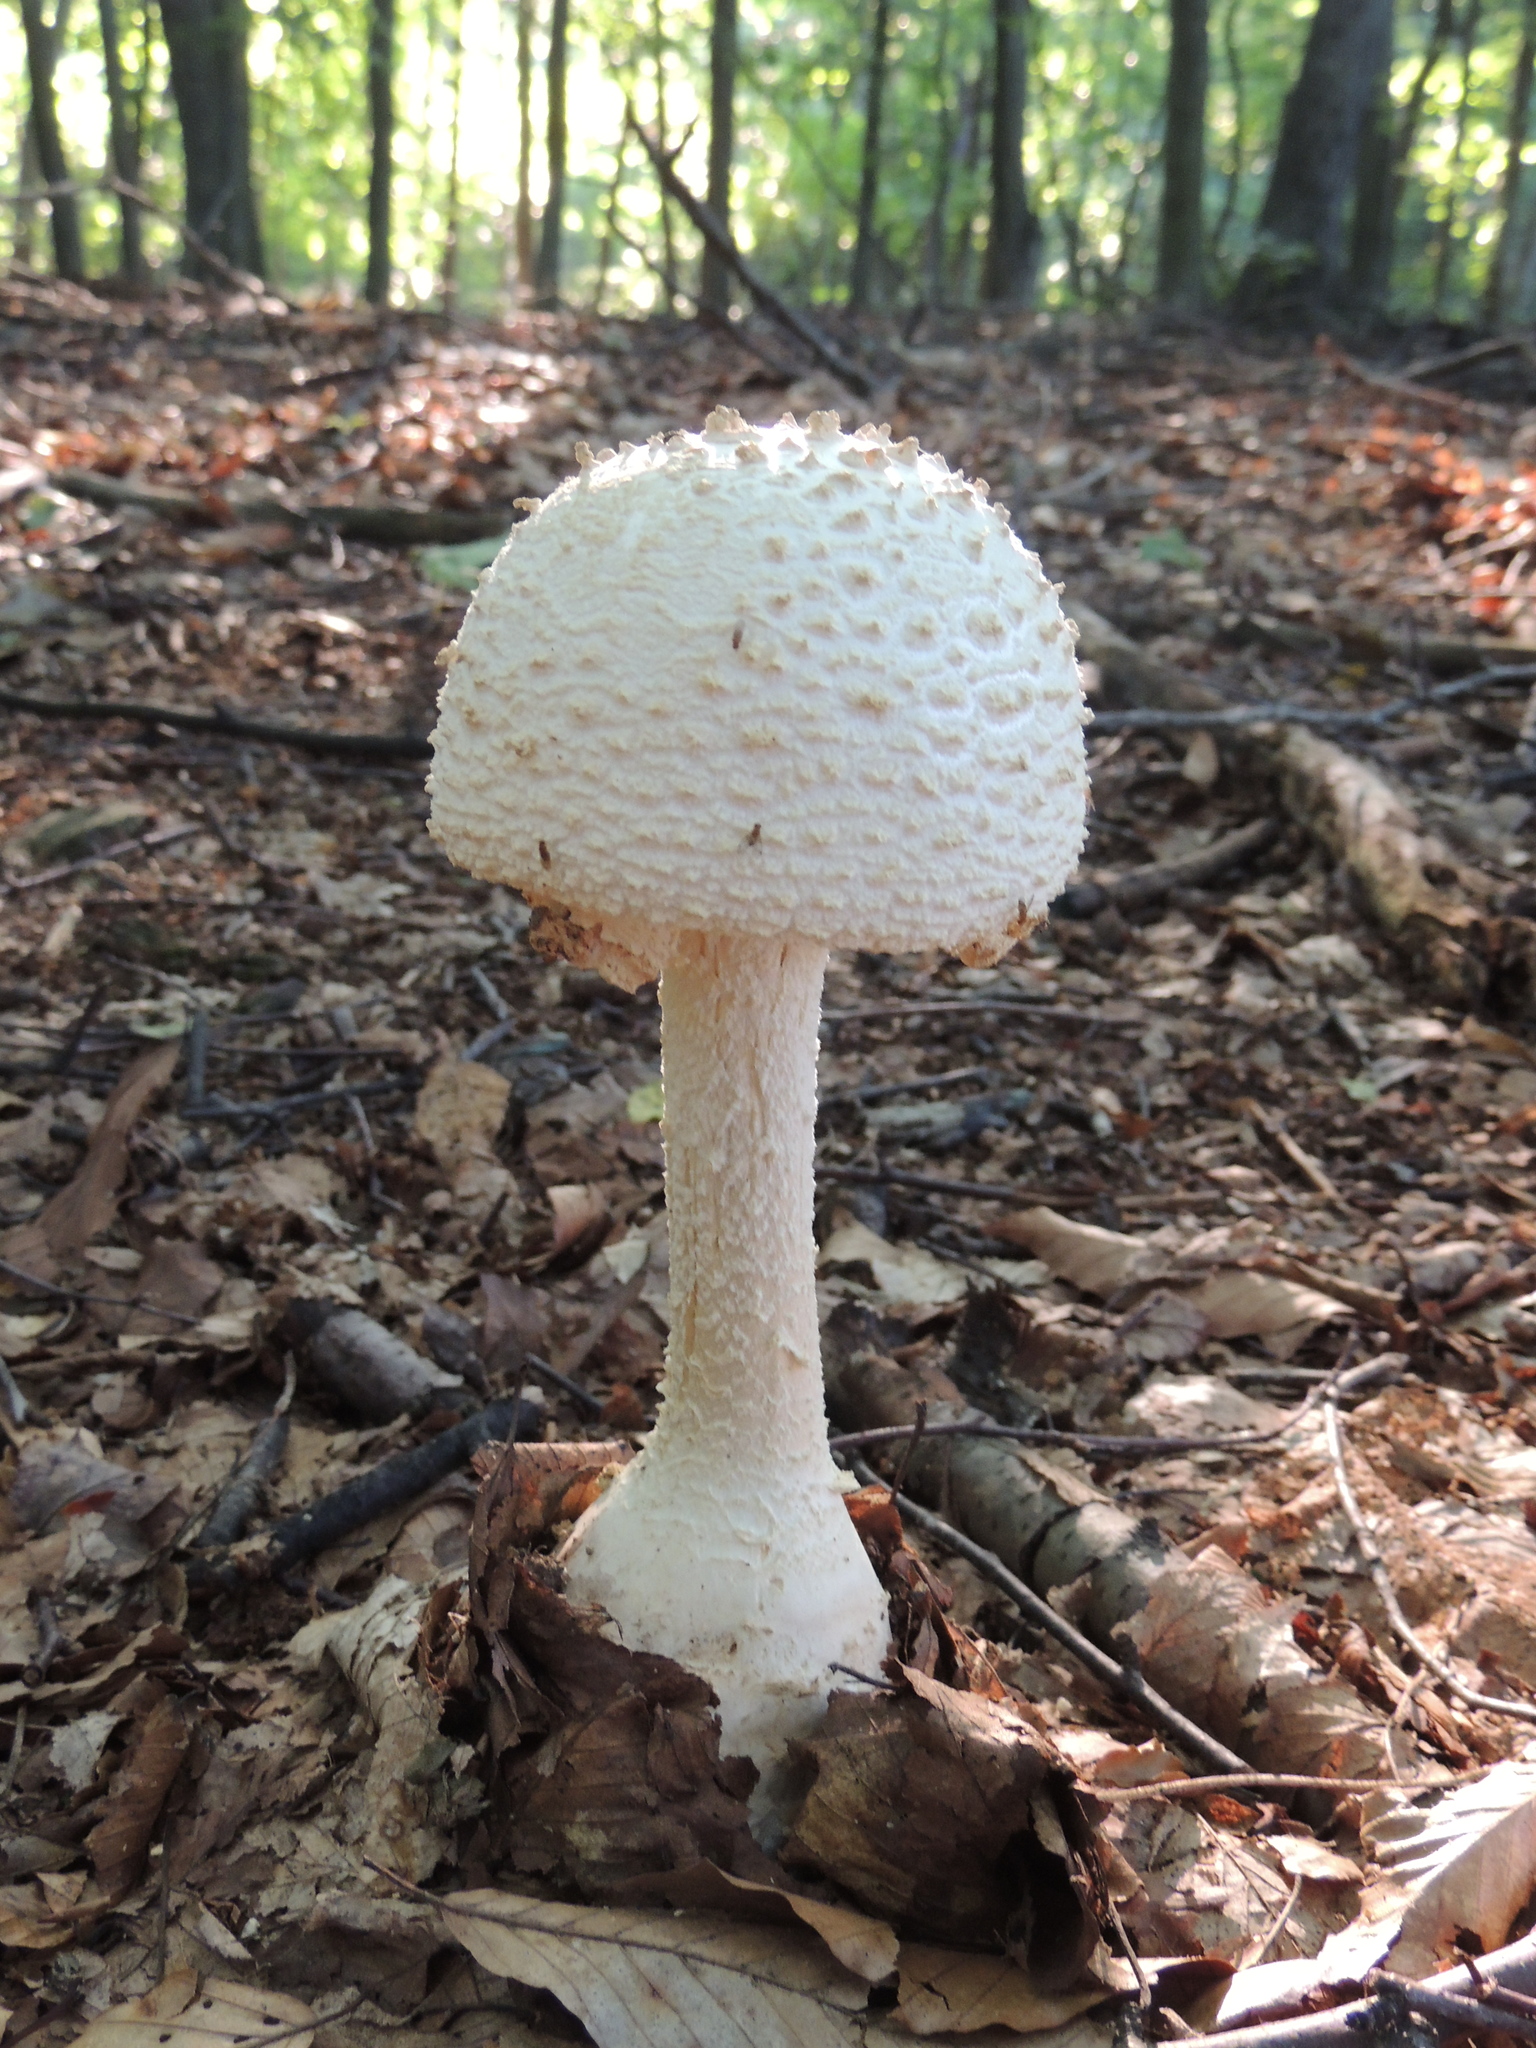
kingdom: Fungi
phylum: Basidiomycota
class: Agaricomycetes
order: Agaricales
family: Amanitaceae
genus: Amanita
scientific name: Amanita ravenelii
